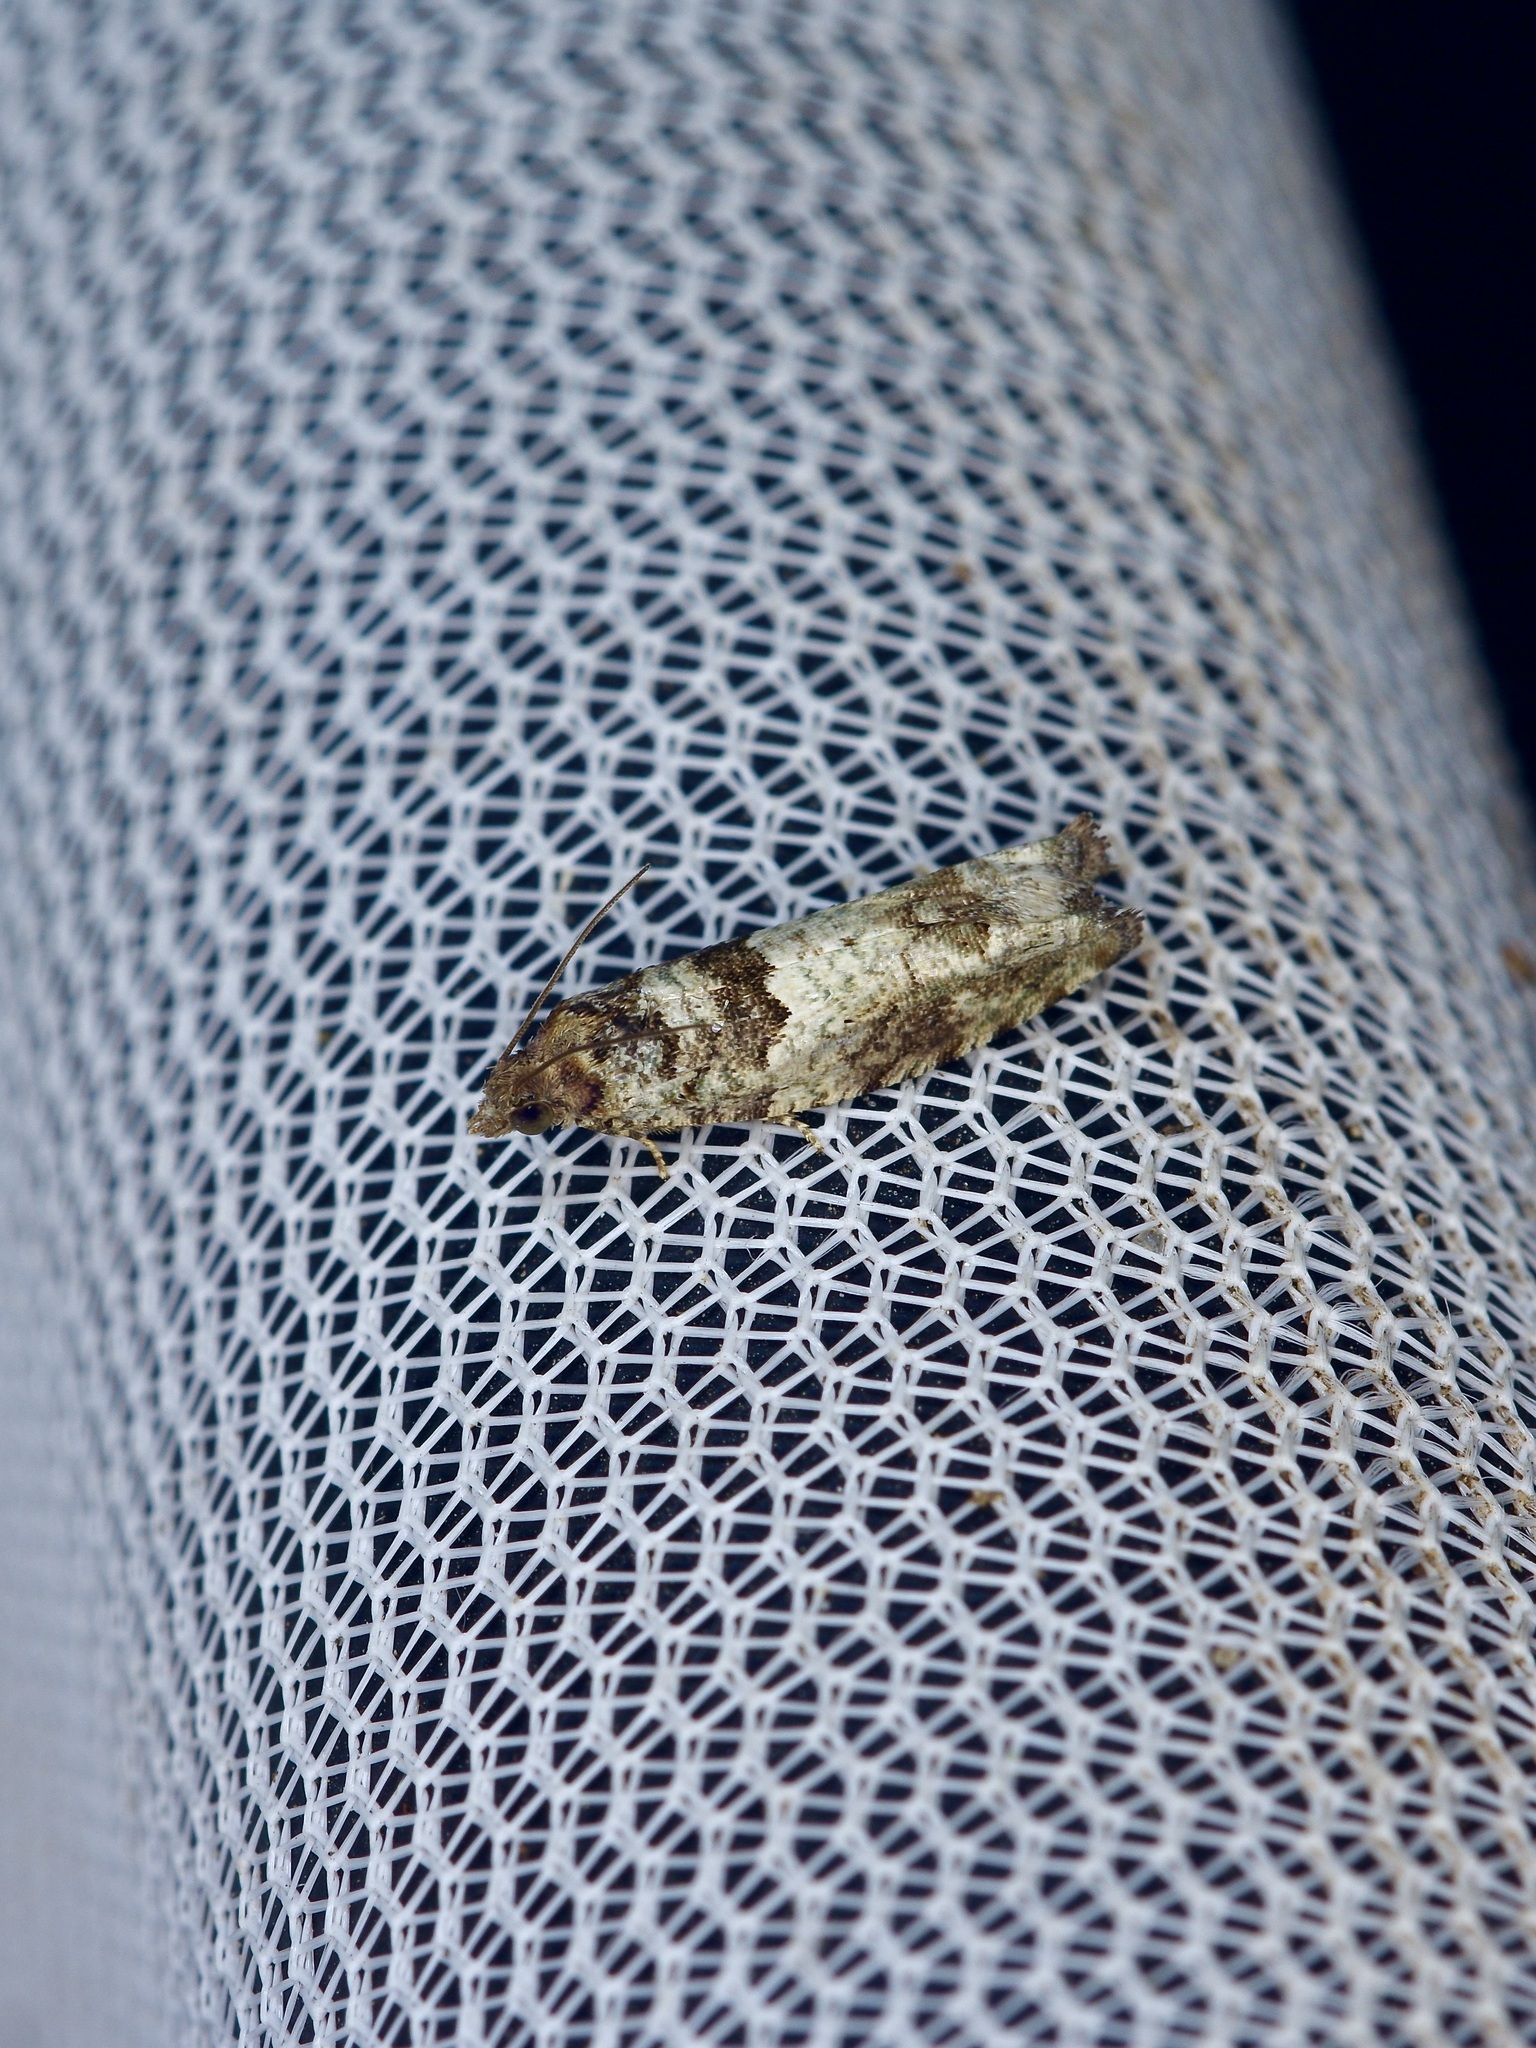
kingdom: Animalia
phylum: Arthropoda
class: Insecta
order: Lepidoptera
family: Tortricidae
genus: Pseudexentera
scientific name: Pseudexentera knudsoni
